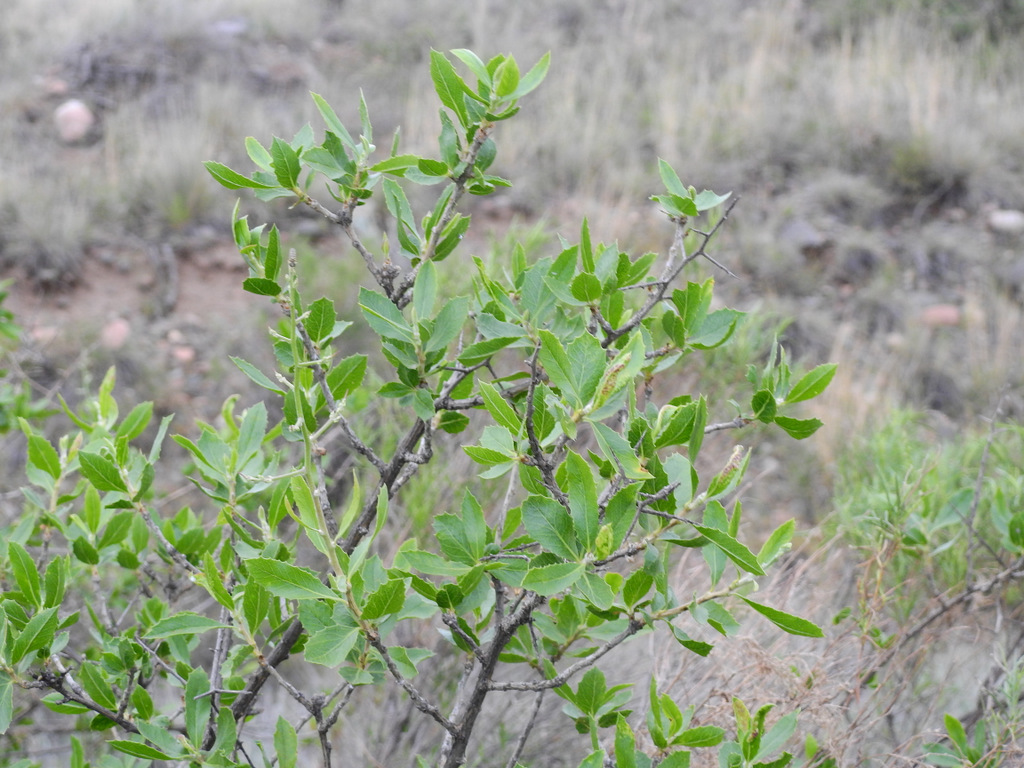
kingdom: Plantae
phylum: Tracheophyta
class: Magnoliopsida
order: Asterales
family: Asteraceae
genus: Proustia
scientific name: Proustia cuneifolia
